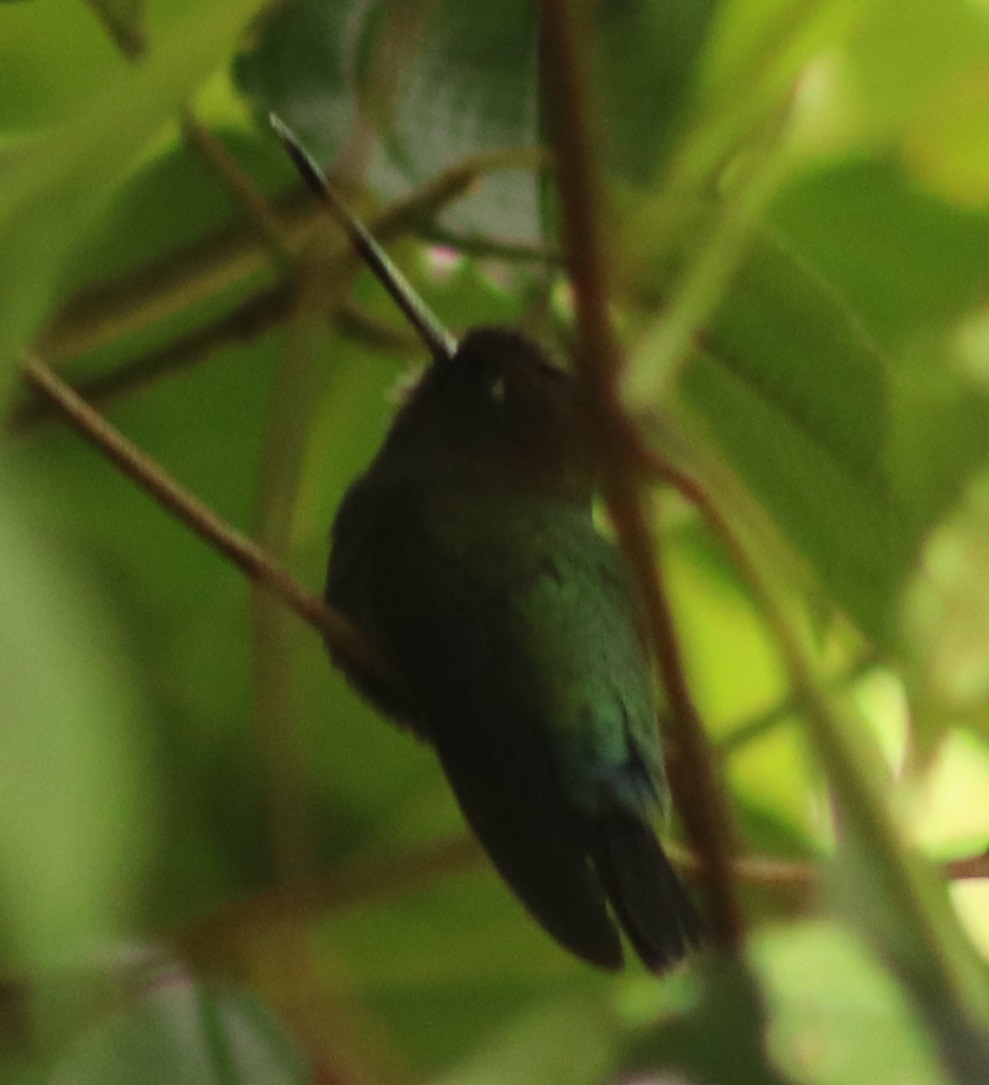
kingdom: Animalia
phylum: Chordata
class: Aves
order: Apodiformes
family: Trochilidae
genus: Doryfera
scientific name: Doryfera ludovicae
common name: Green-fronted lancebill
